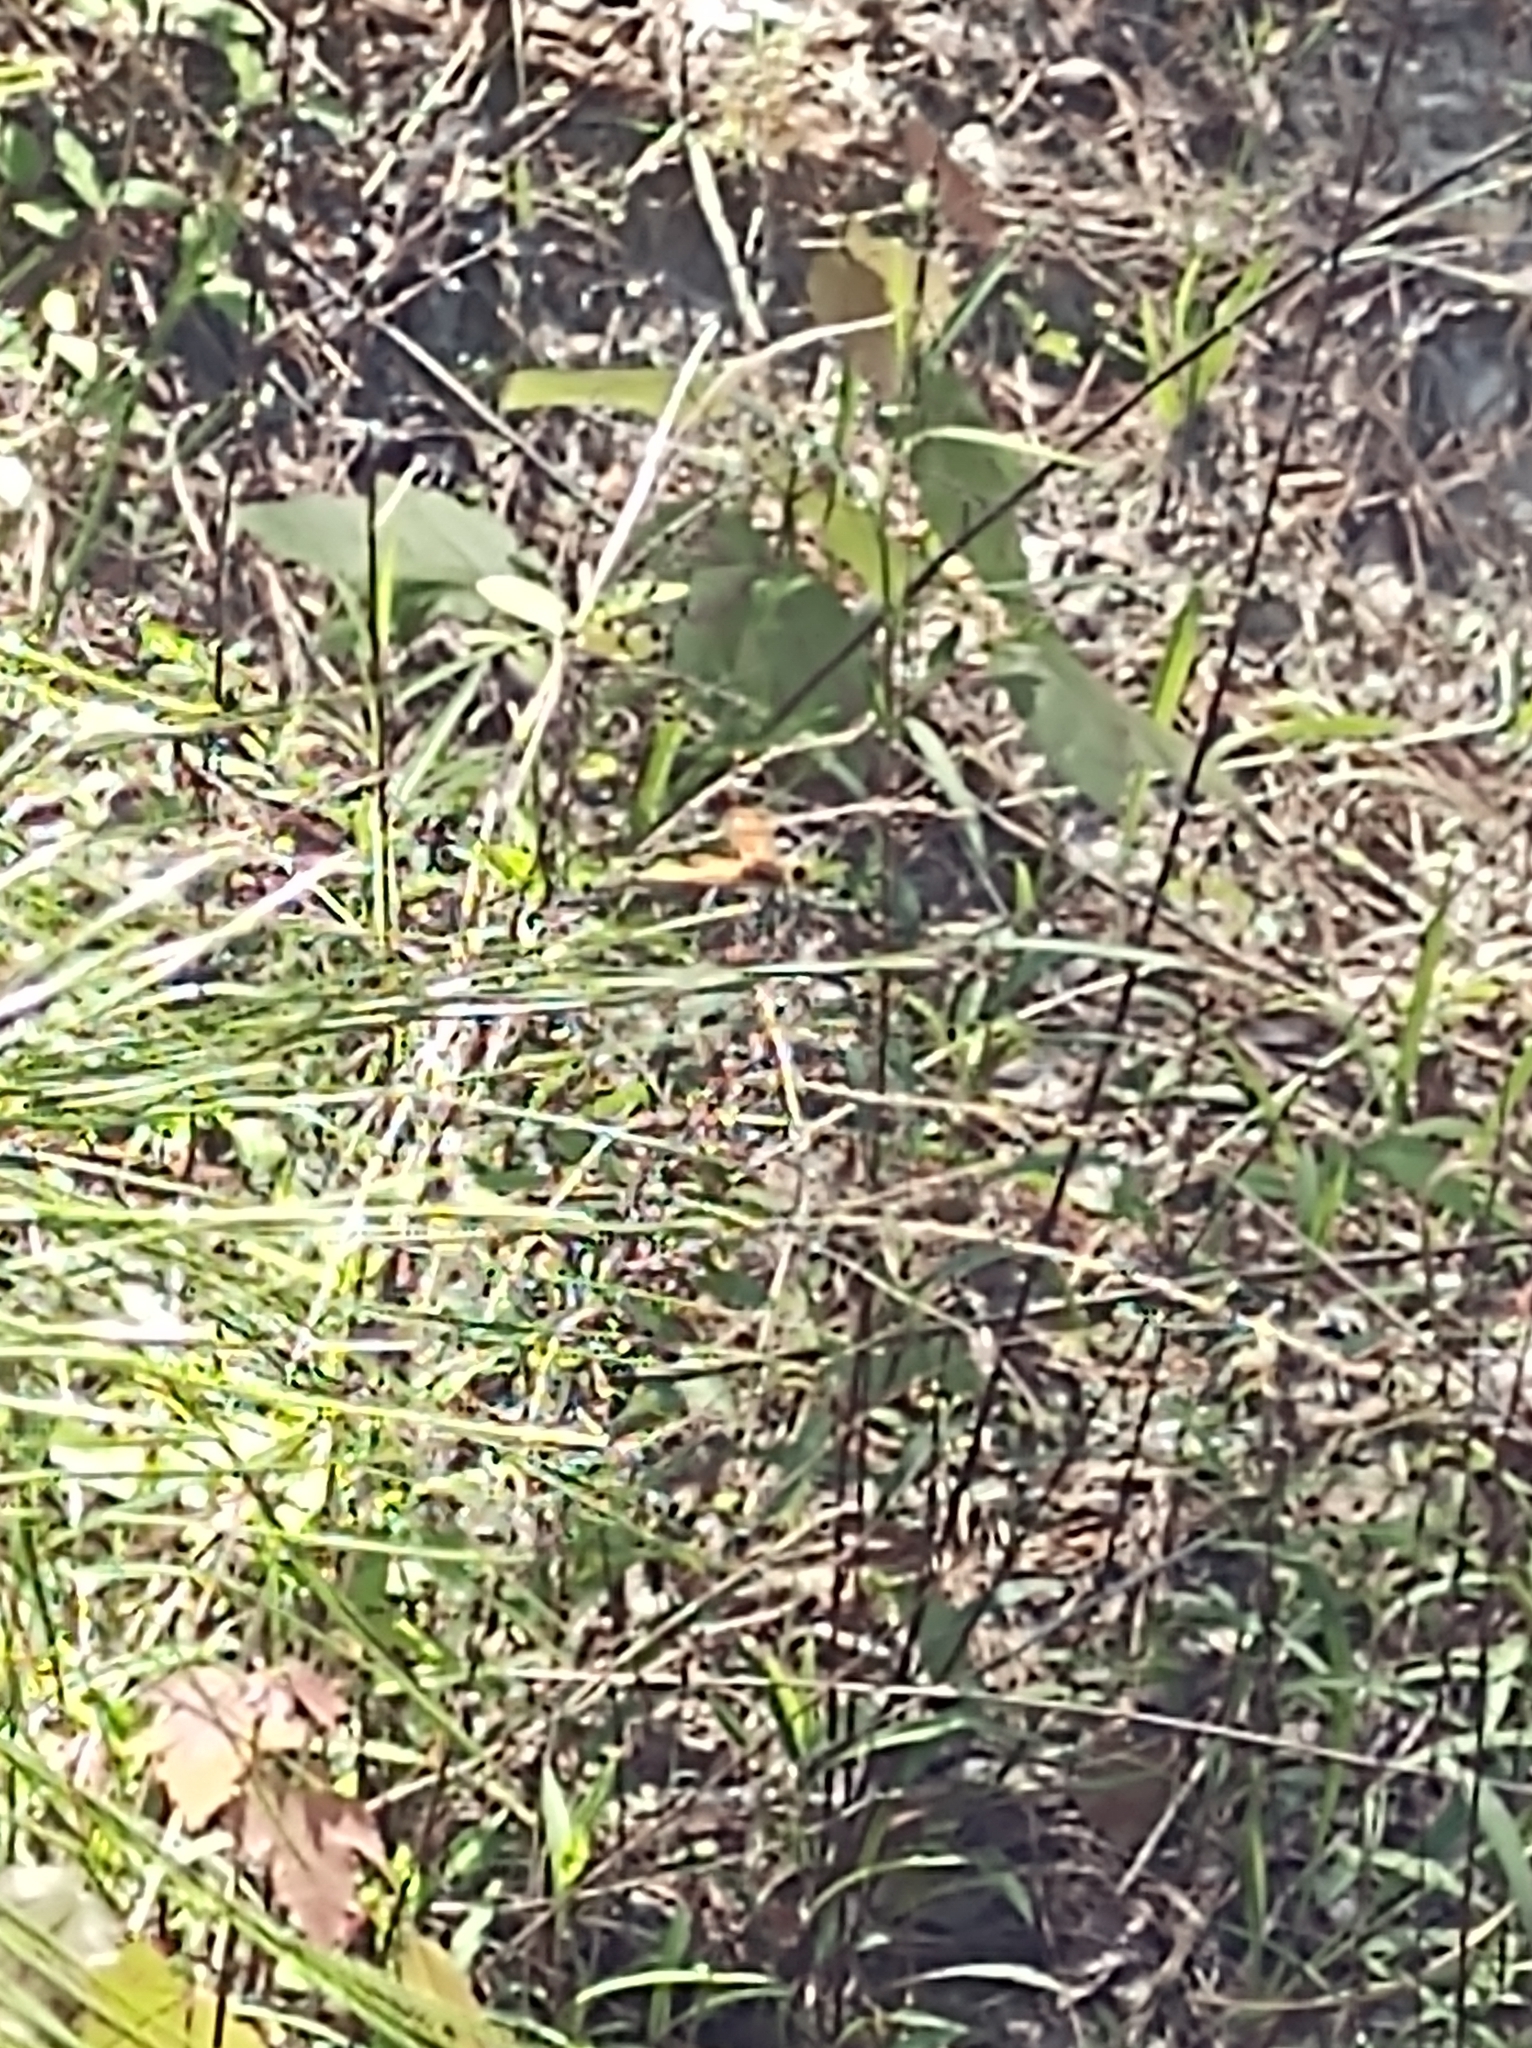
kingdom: Animalia
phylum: Arthropoda
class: Insecta
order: Odonata
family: Libellulidae
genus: Libellula
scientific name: Libellula semifasciata
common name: Painted skimmer
